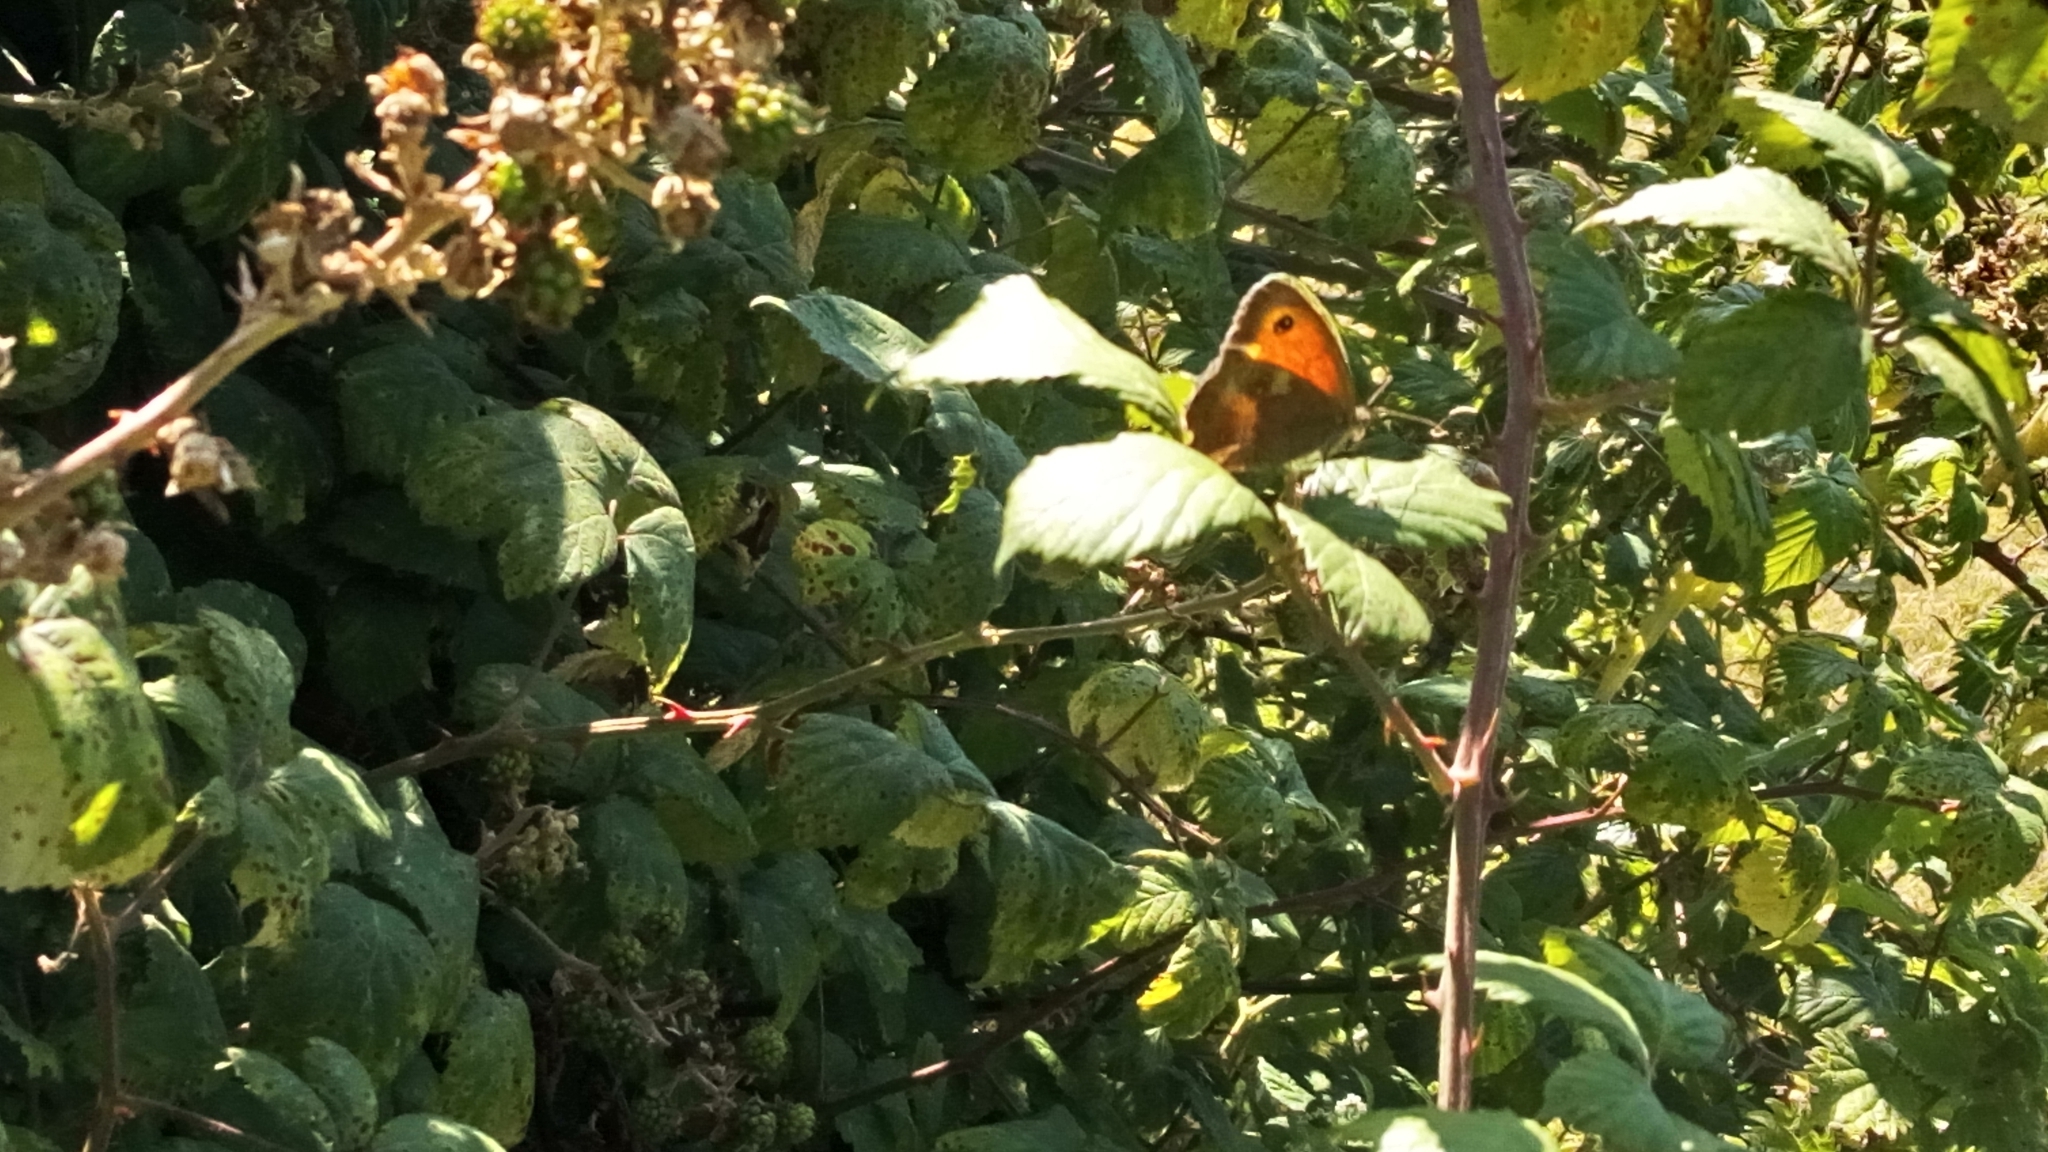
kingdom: Animalia
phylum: Arthropoda
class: Insecta
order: Lepidoptera
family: Nymphalidae
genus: Pyronia
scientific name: Pyronia tithonus
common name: Gatekeeper
